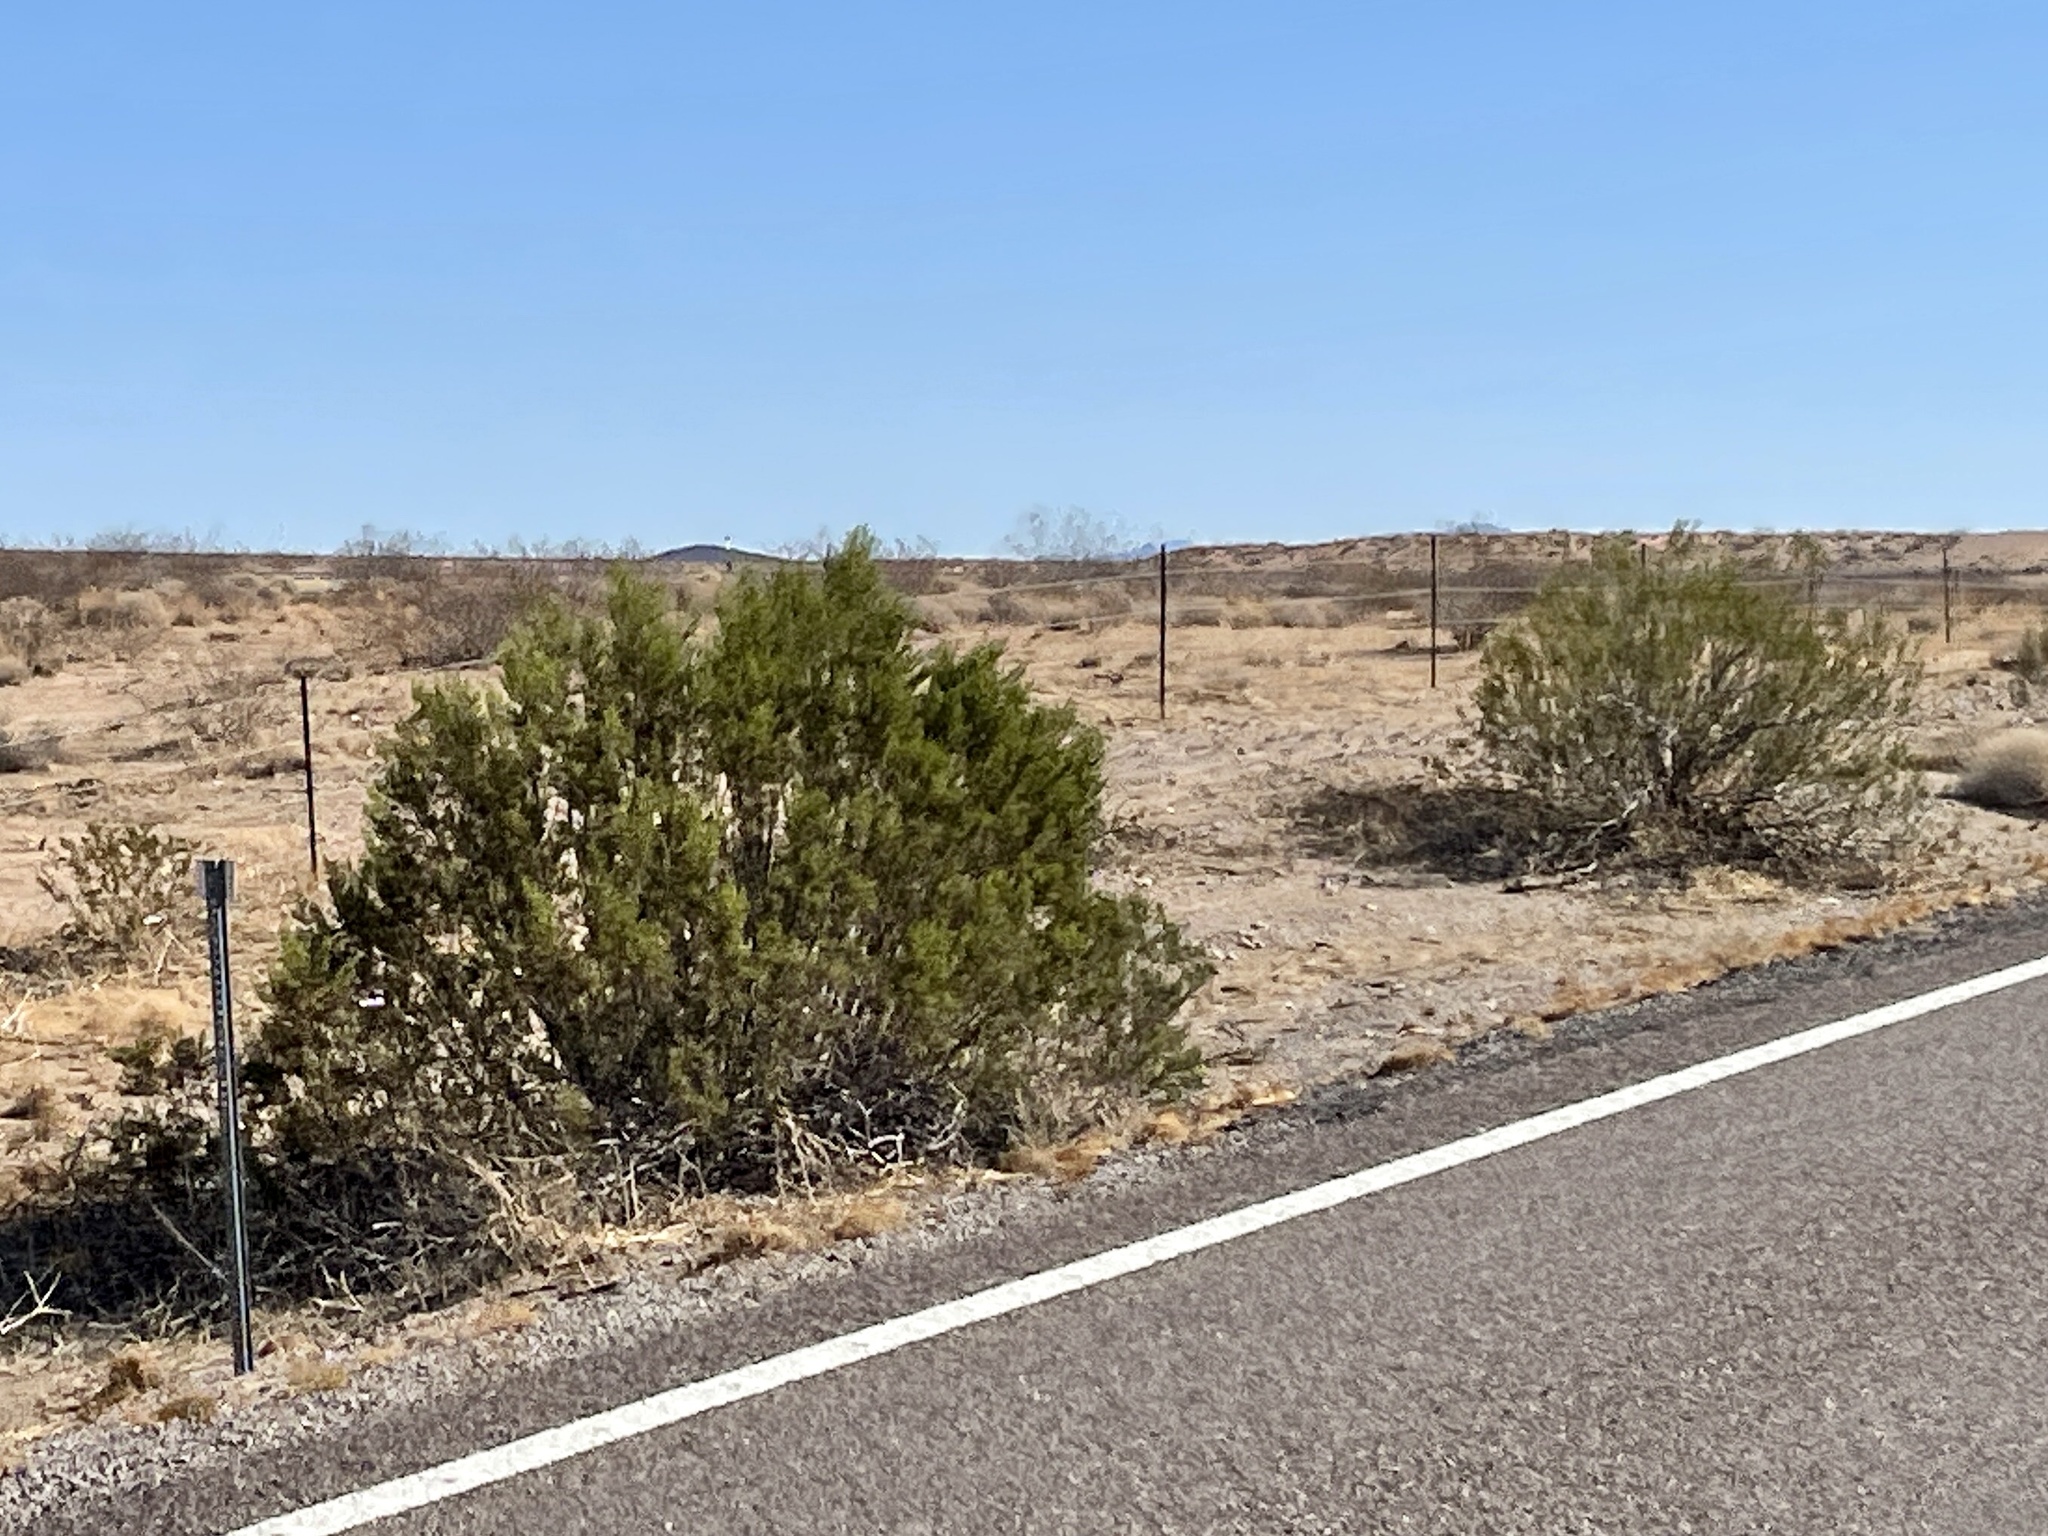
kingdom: Plantae
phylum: Tracheophyta
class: Magnoliopsida
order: Zygophyllales
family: Zygophyllaceae
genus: Larrea
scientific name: Larrea tridentata
